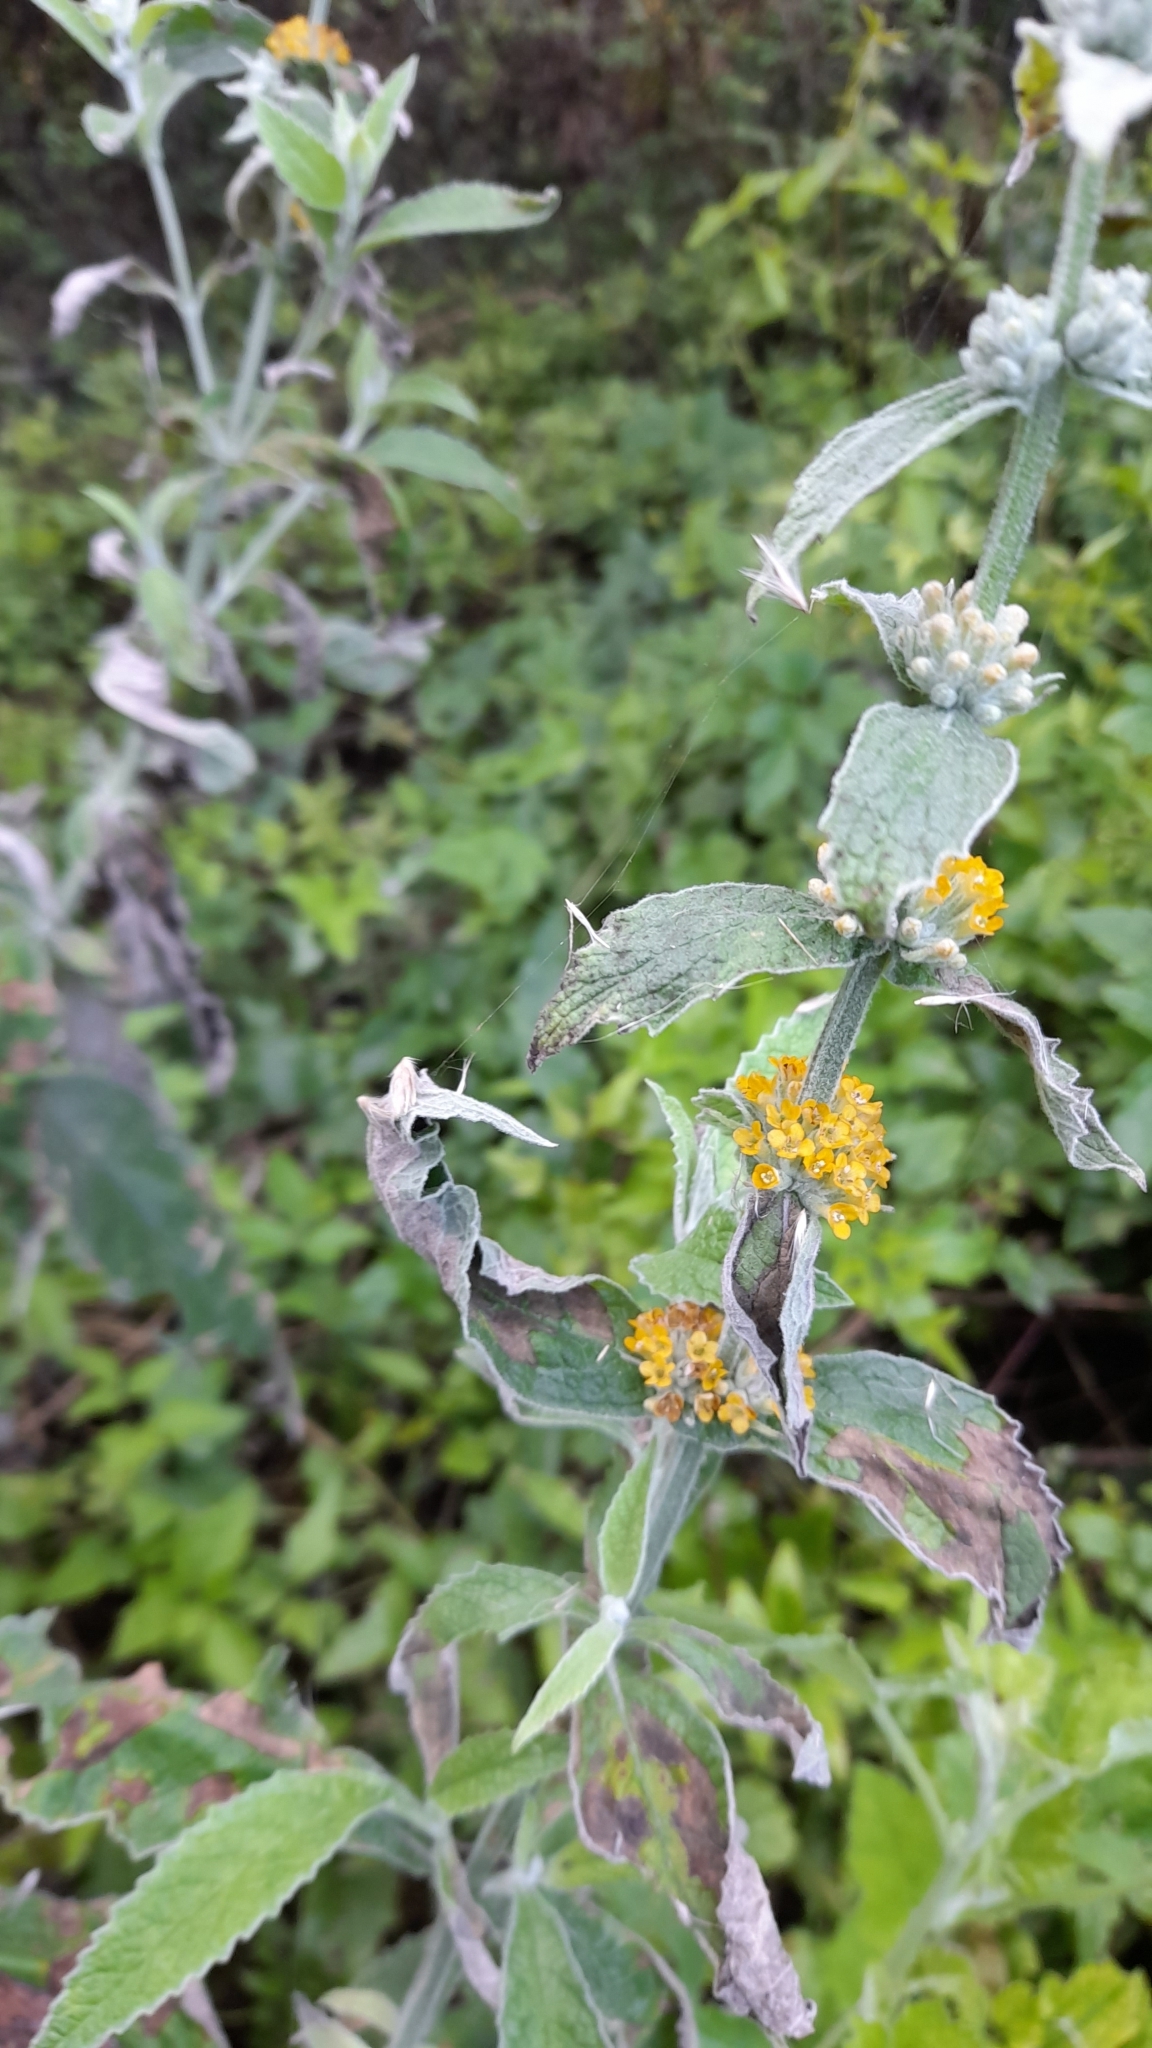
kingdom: Plantae
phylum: Tracheophyta
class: Magnoliopsida
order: Lamiales
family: Scrophulariaceae
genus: Buddleja
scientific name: Buddleja stachyoides
